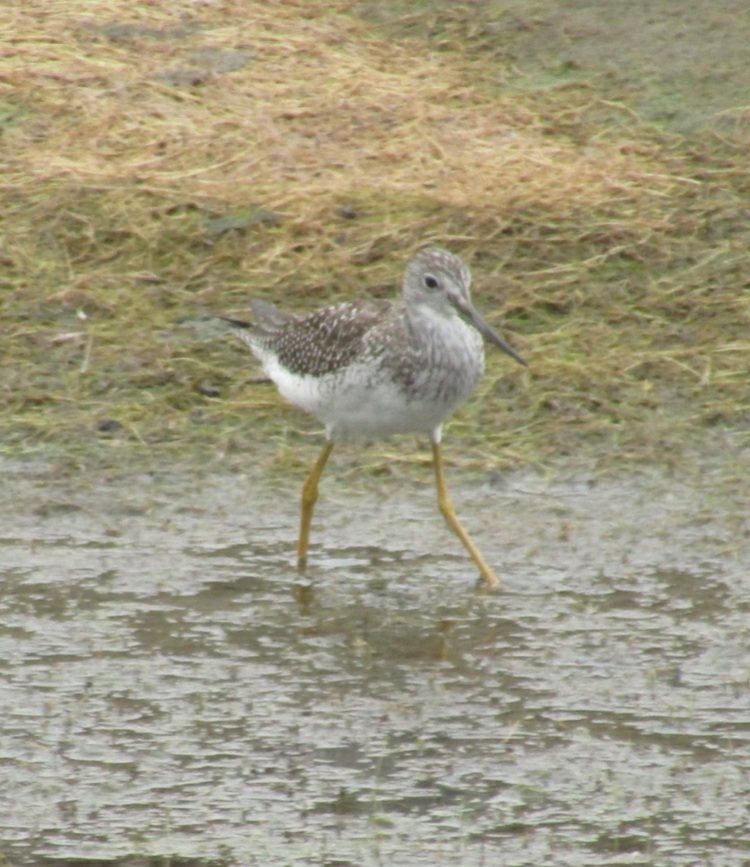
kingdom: Animalia
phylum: Chordata
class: Aves
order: Charadriiformes
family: Scolopacidae
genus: Tringa
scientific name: Tringa melanoleuca
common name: Greater yellowlegs
